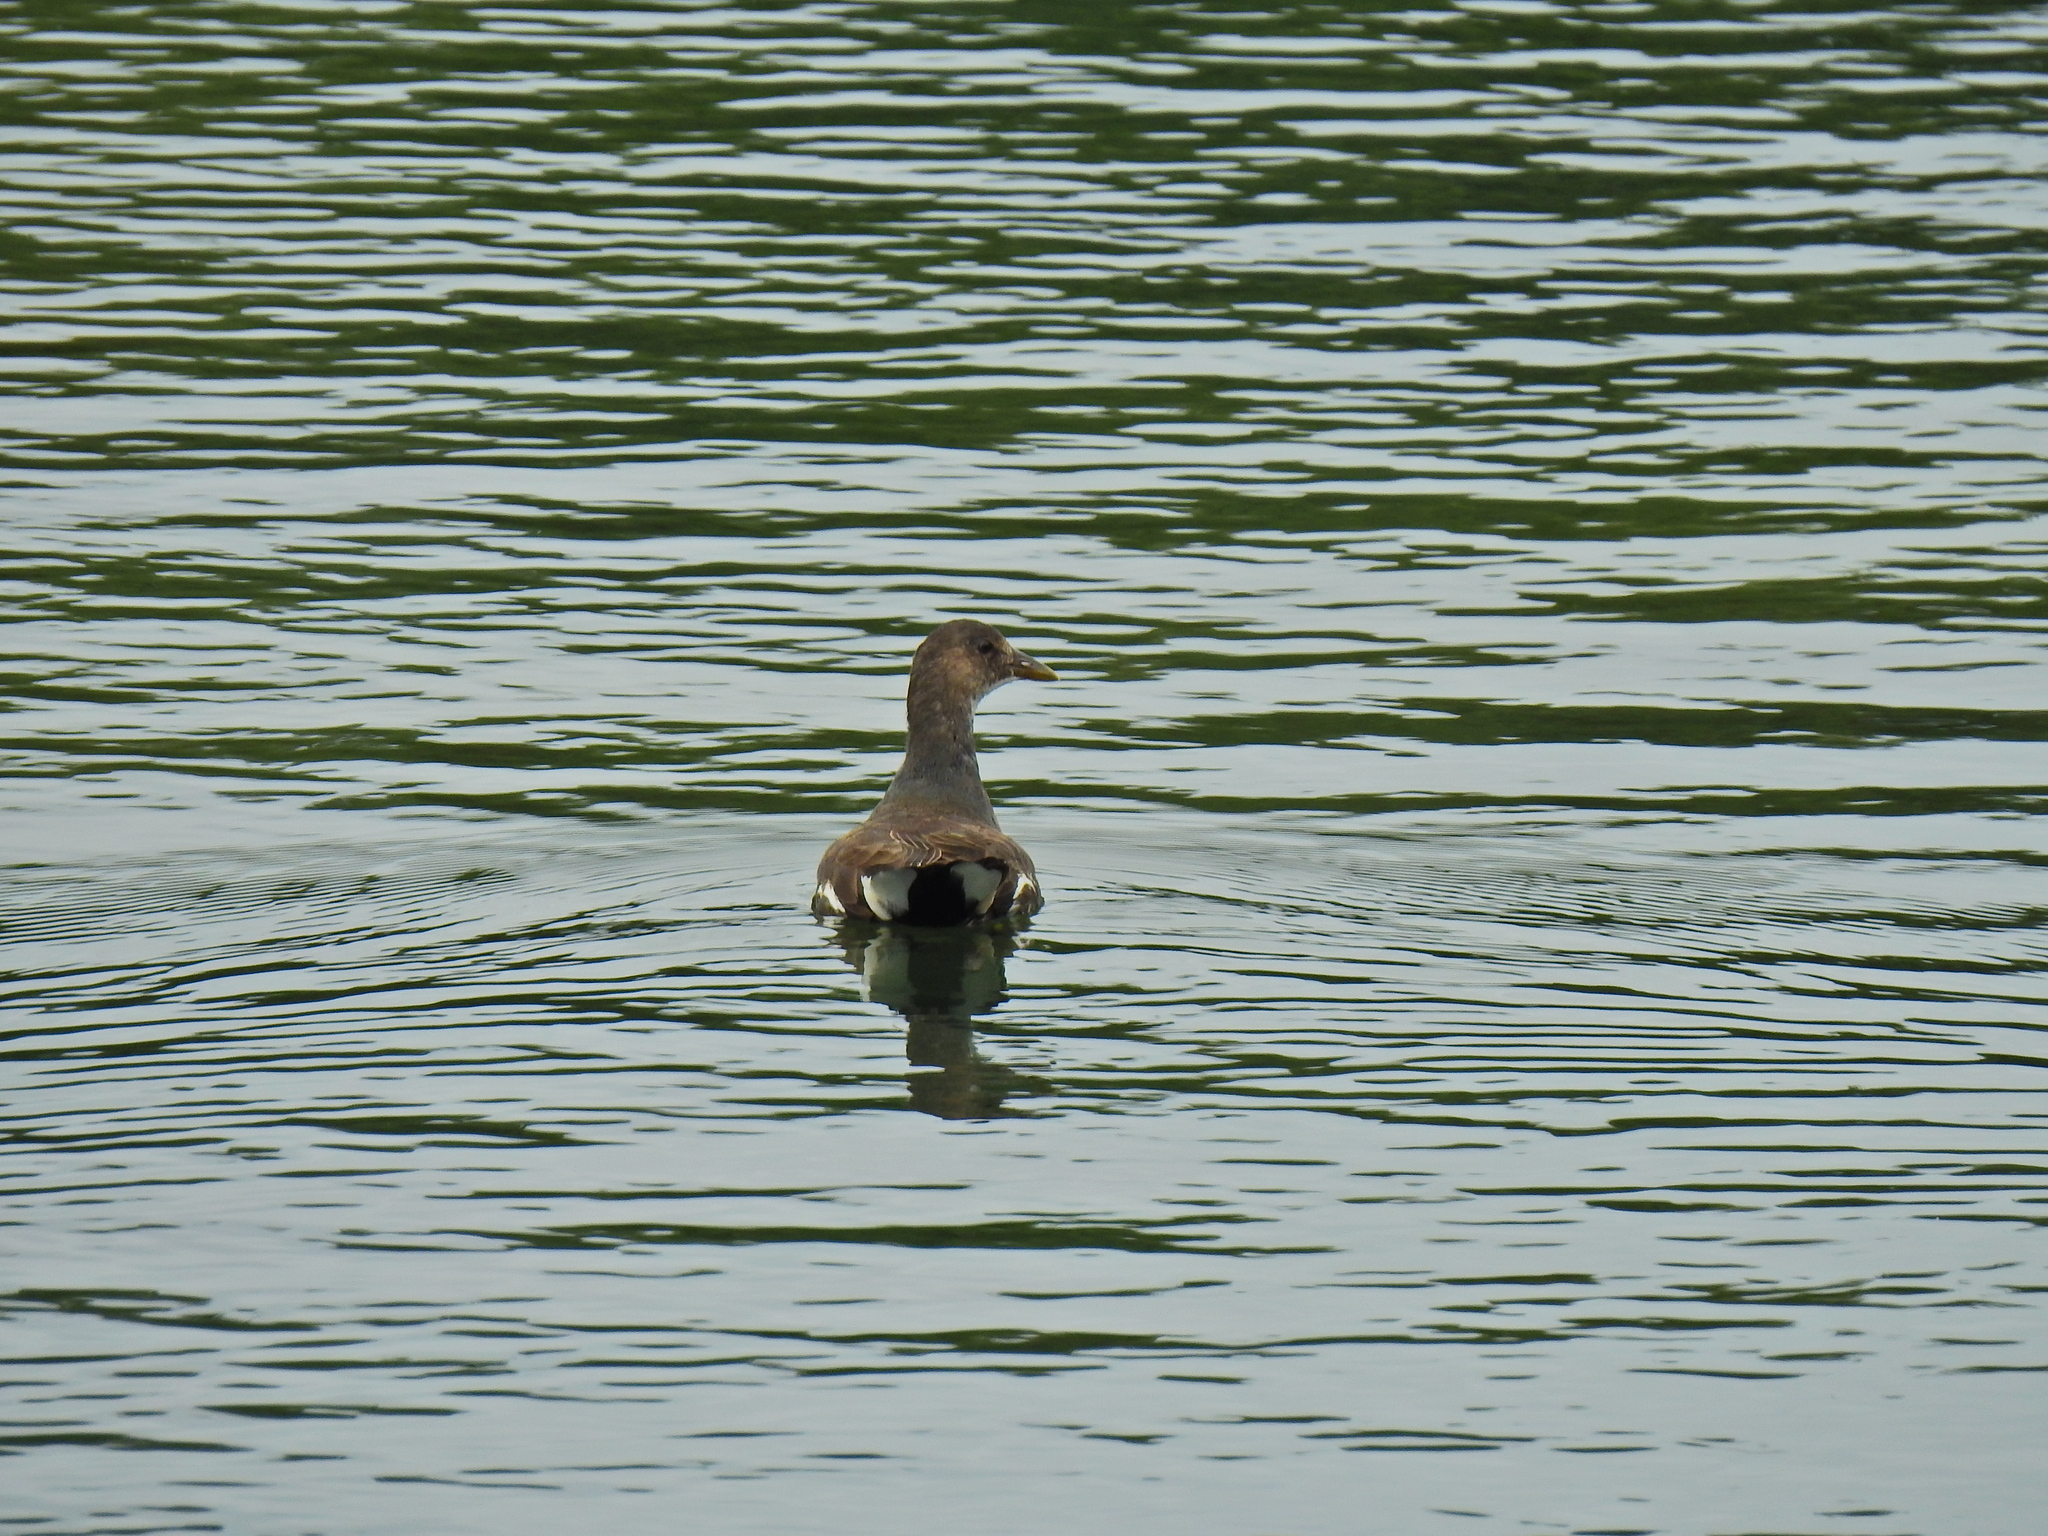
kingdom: Animalia
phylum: Chordata
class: Aves
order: Gruiformes
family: Rallidae
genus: Gallinula
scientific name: Gallinula chloropus
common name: Common moorhen
